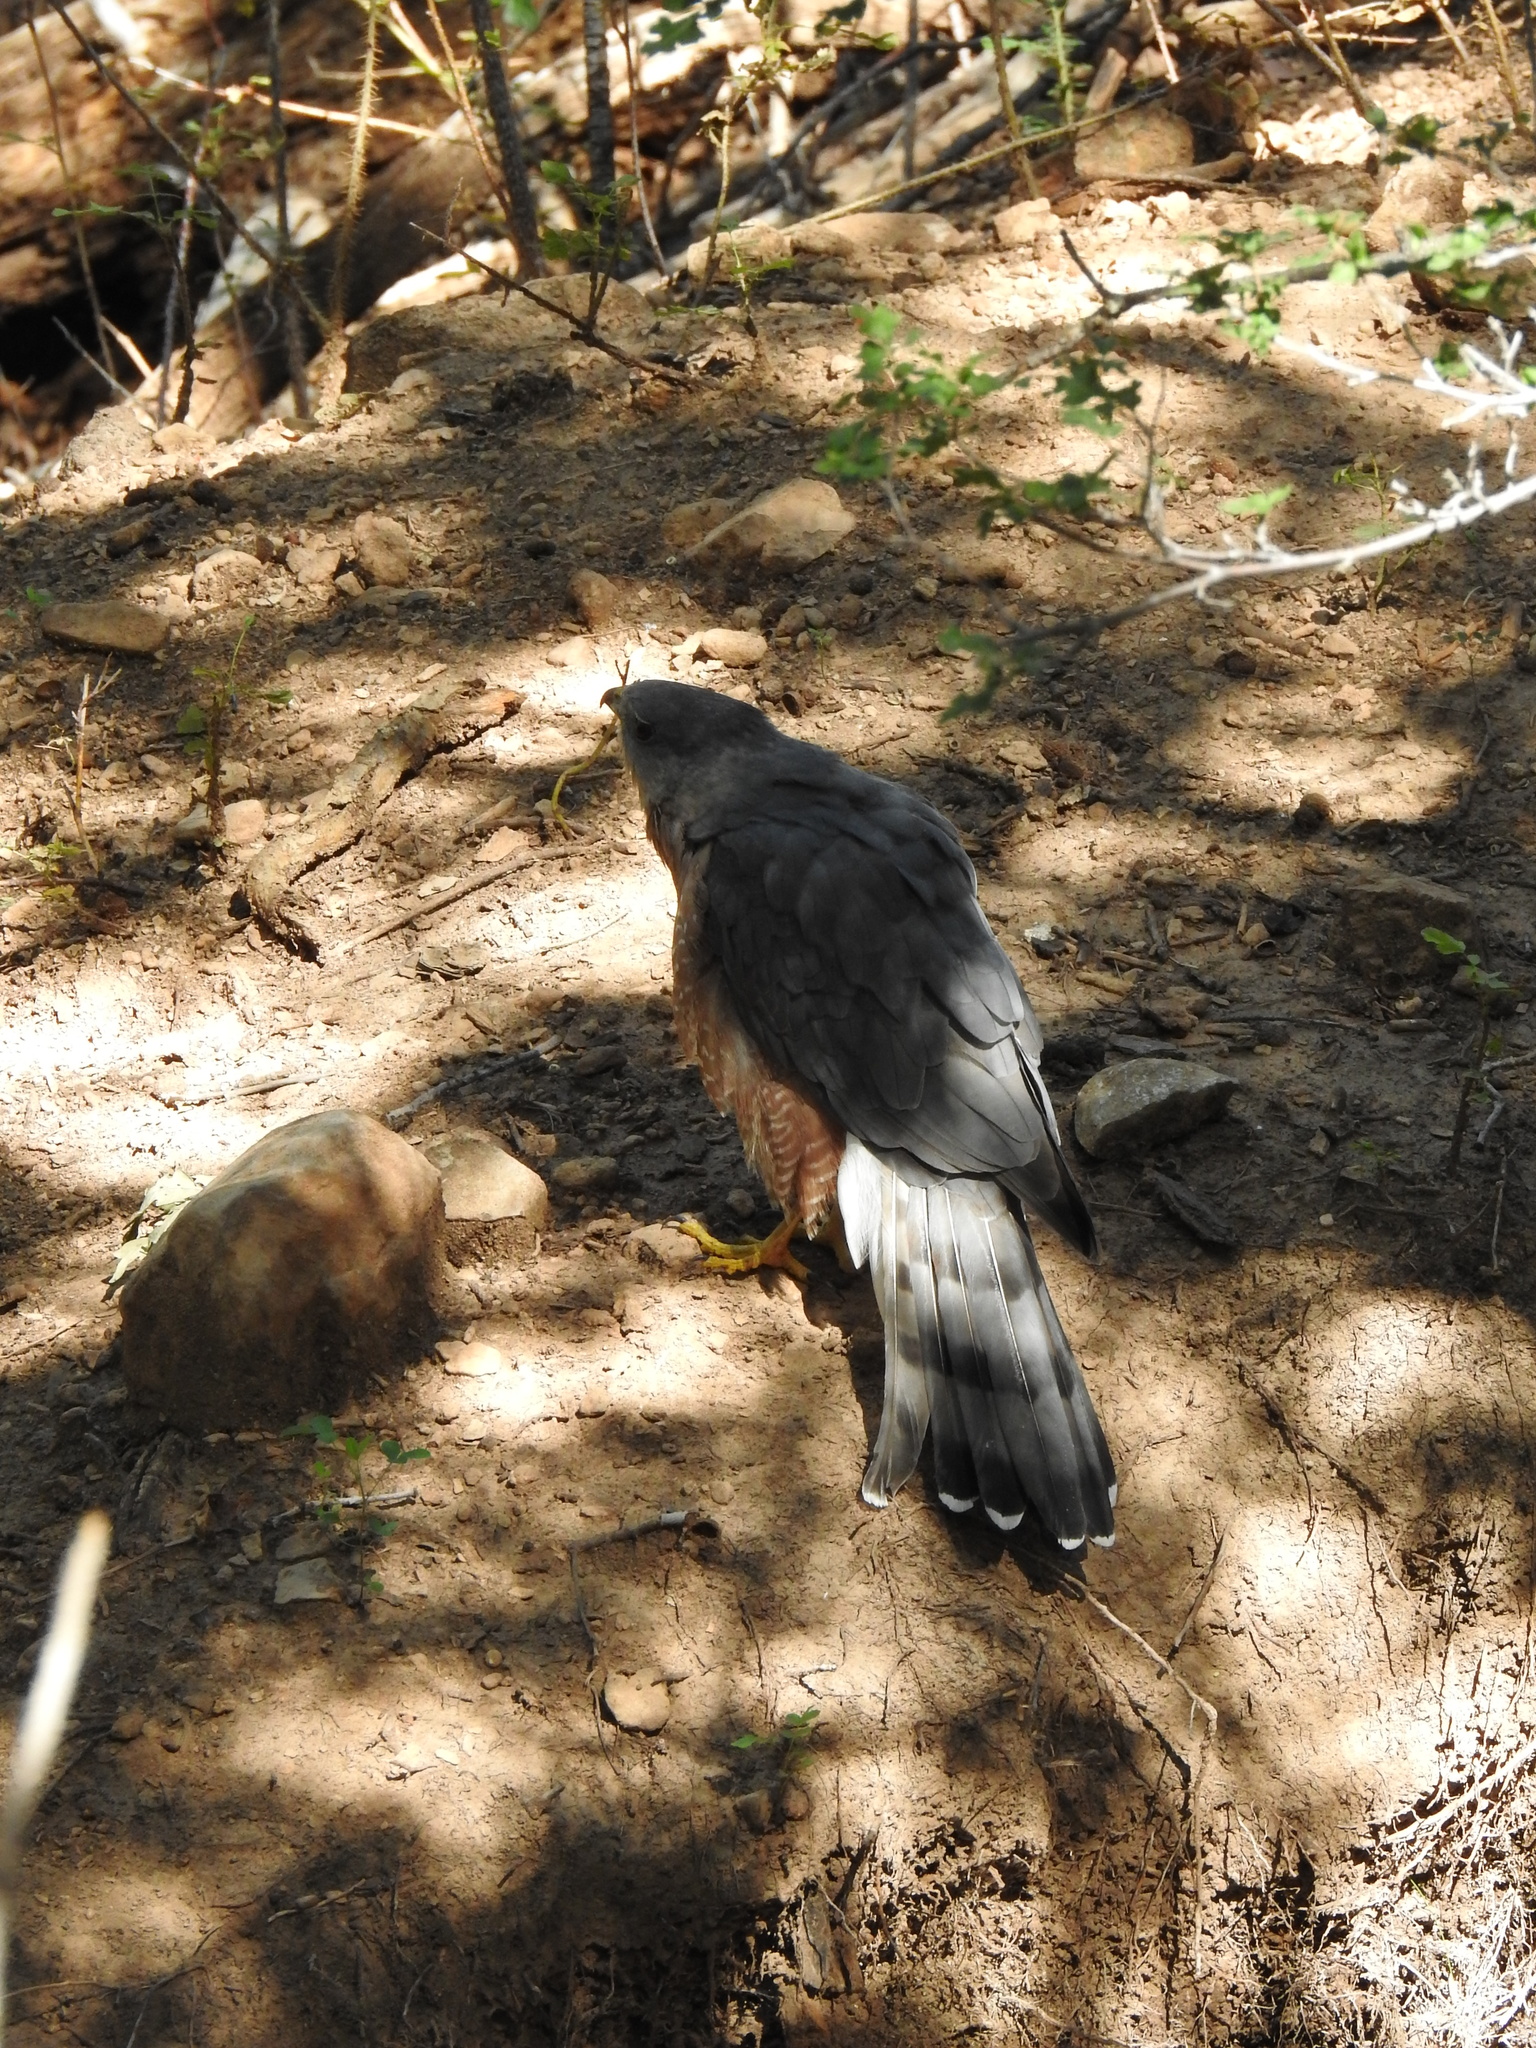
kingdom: Animalia
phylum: Chordata
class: Aves
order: Accipitriformes
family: Accipitridae
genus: Accipiter
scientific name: Accipiter cooperii
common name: Cooper's hawk
